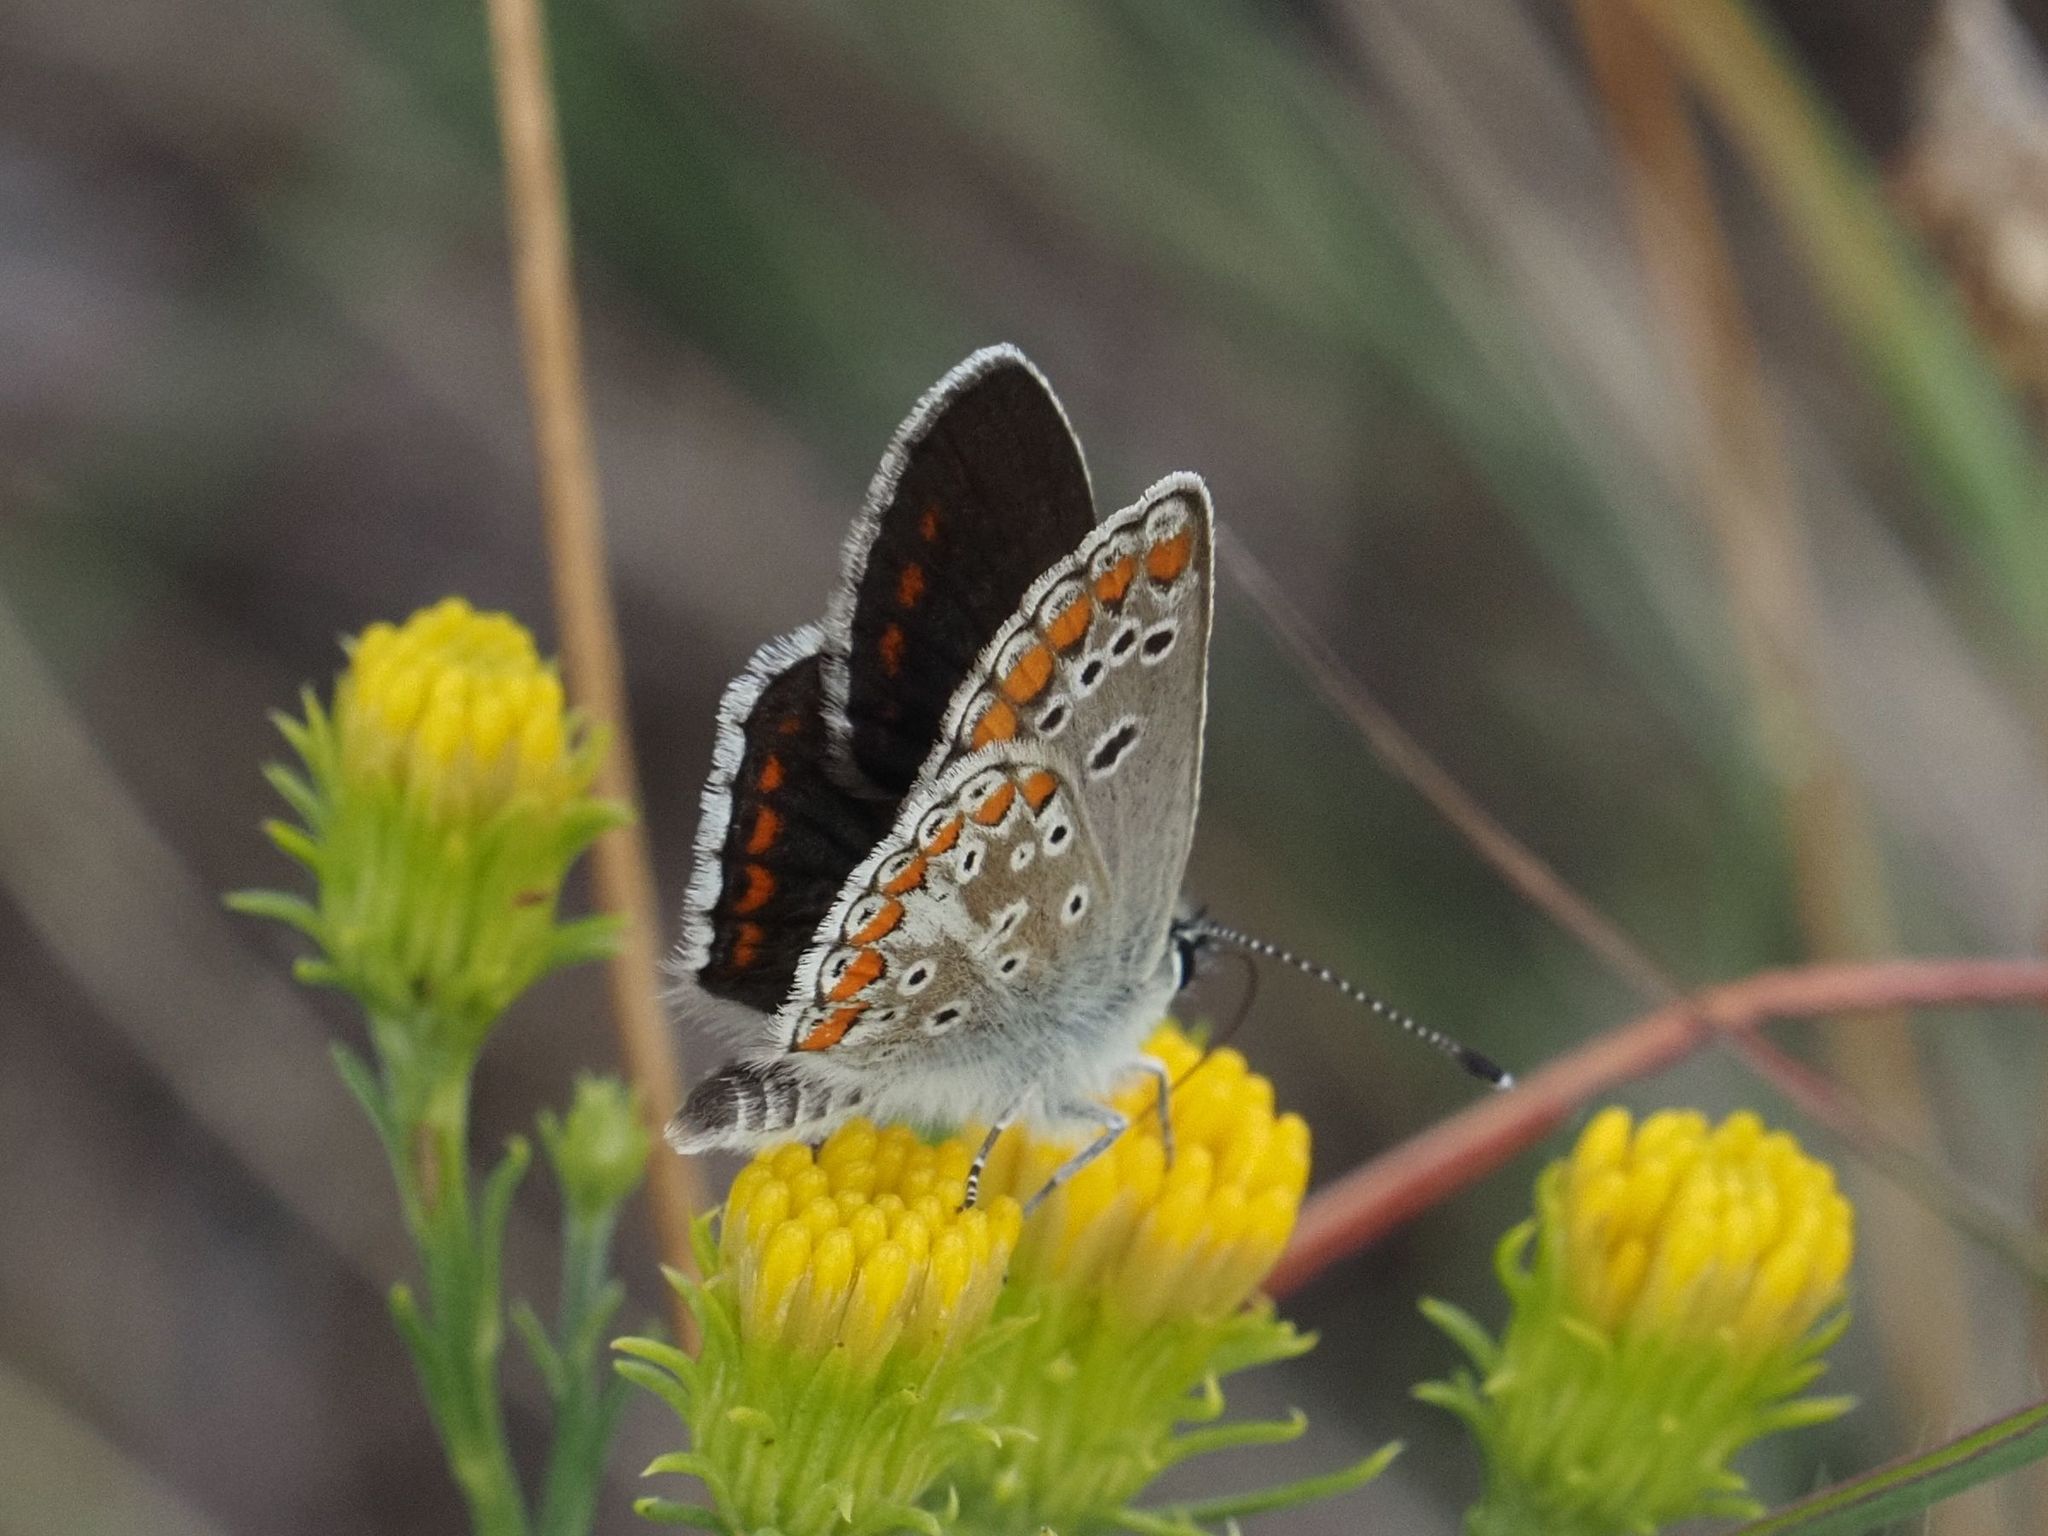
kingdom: Animalia
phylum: Arthropoda
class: Insecta
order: Lepidoptera
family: Lycaenidae
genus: Aricia
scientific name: Aricia agestis
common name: Brown argus
